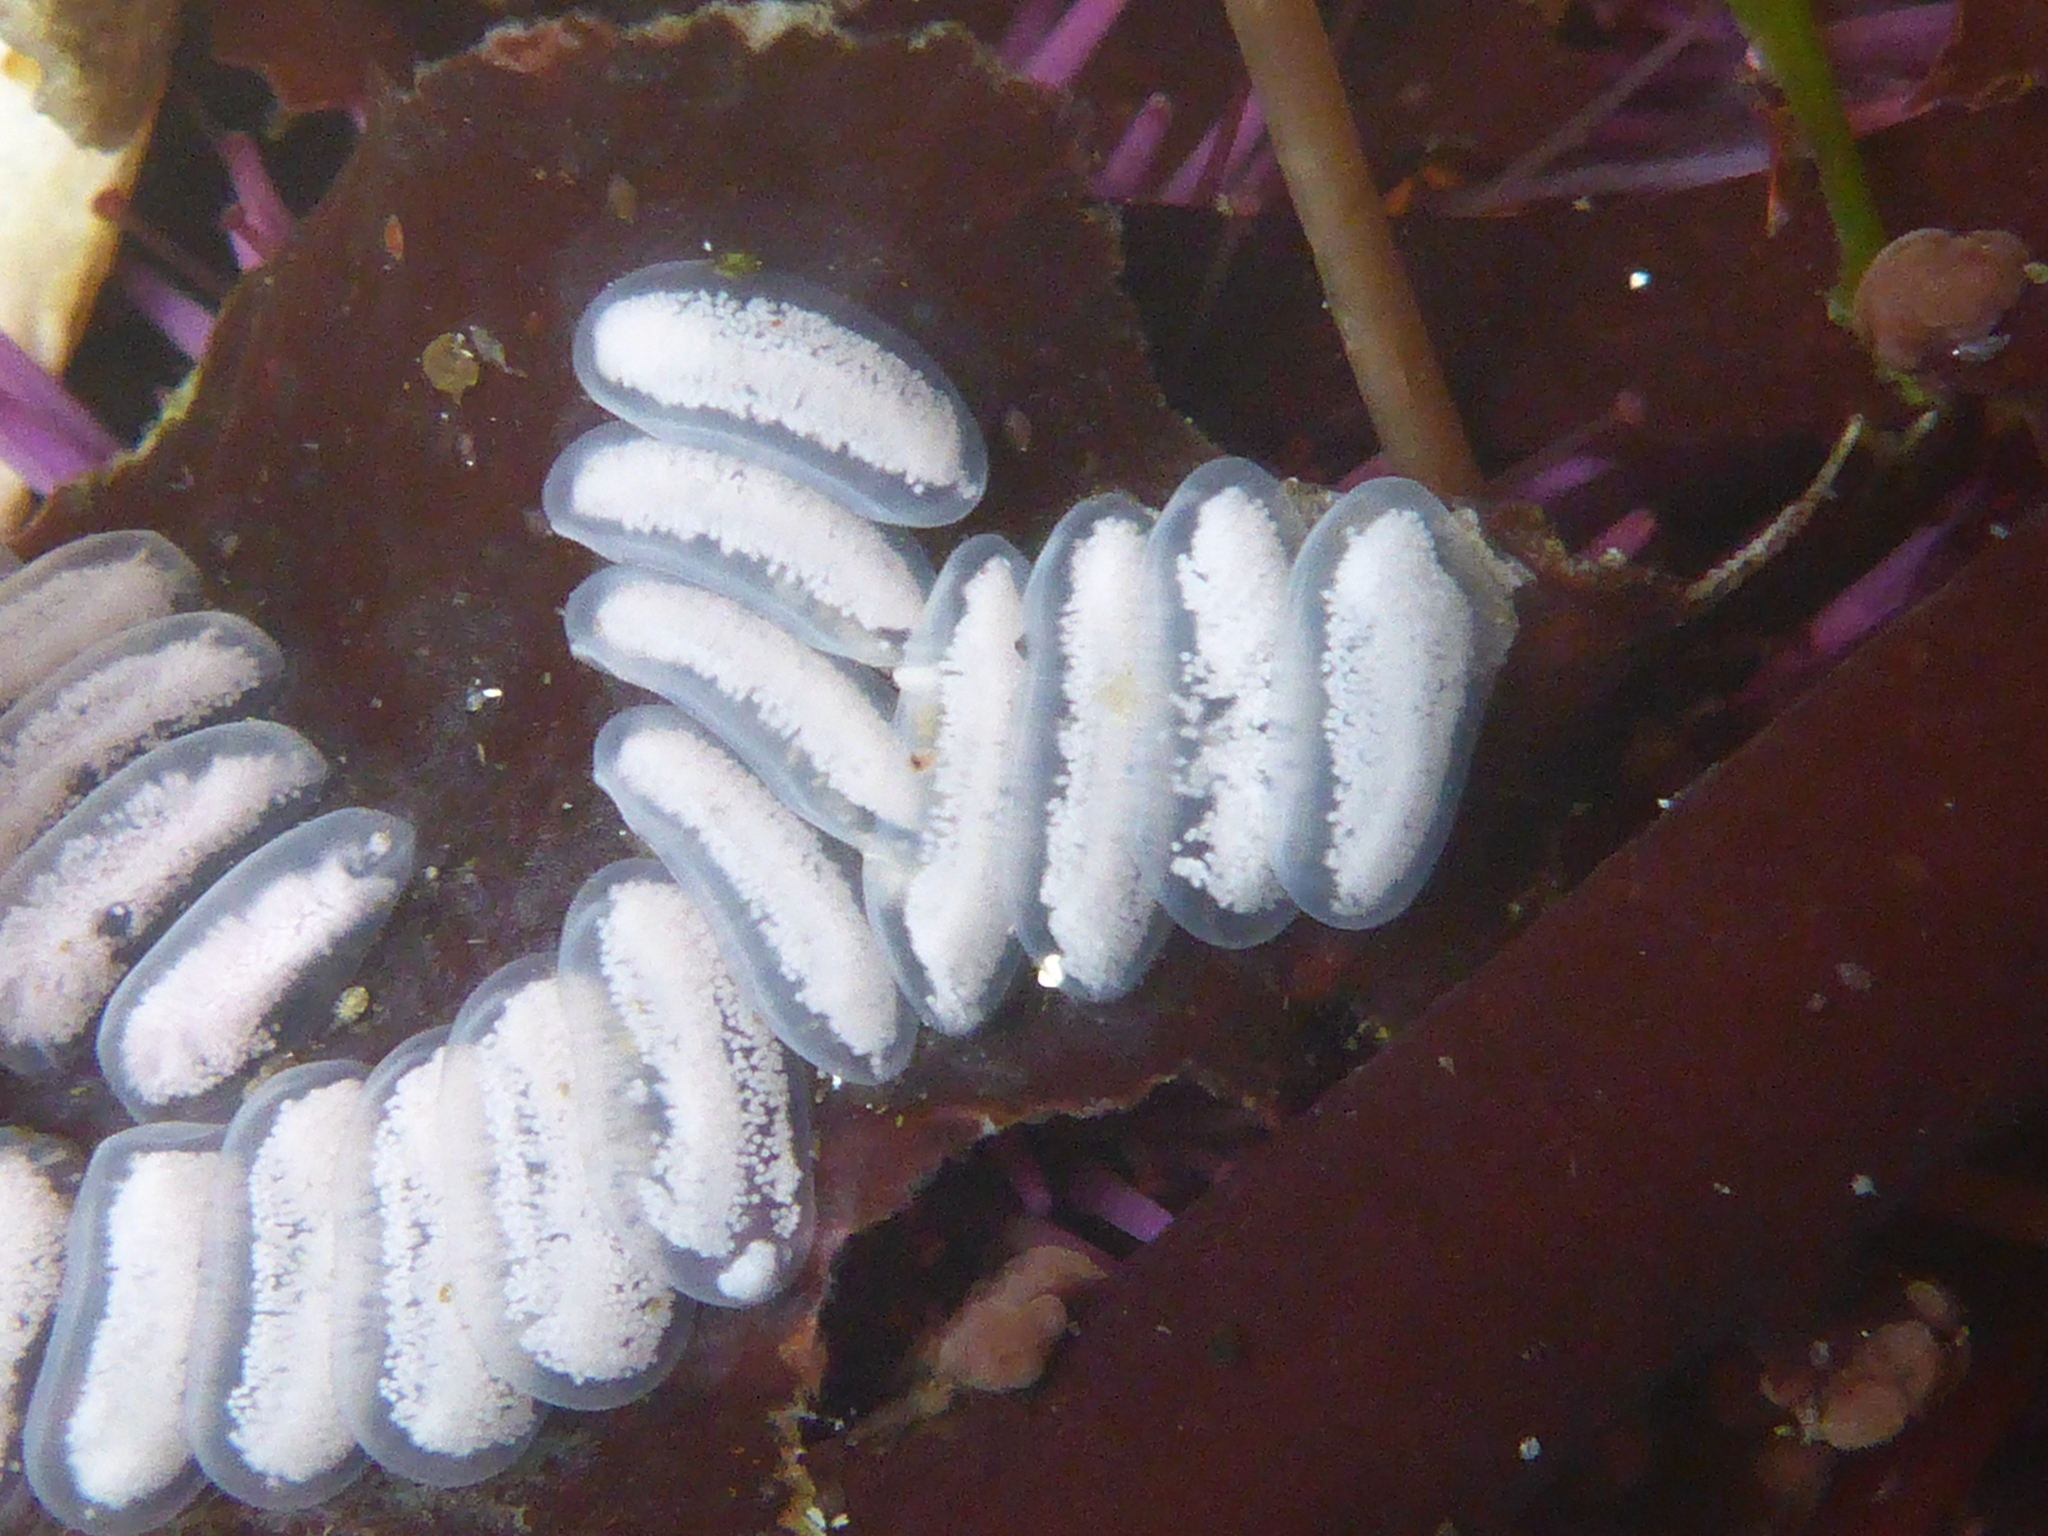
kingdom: Animalia
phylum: Mollusca
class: Gastropoda
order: Neogastropoda
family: Conidae
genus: Californiconus
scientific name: Californiconus californicus
